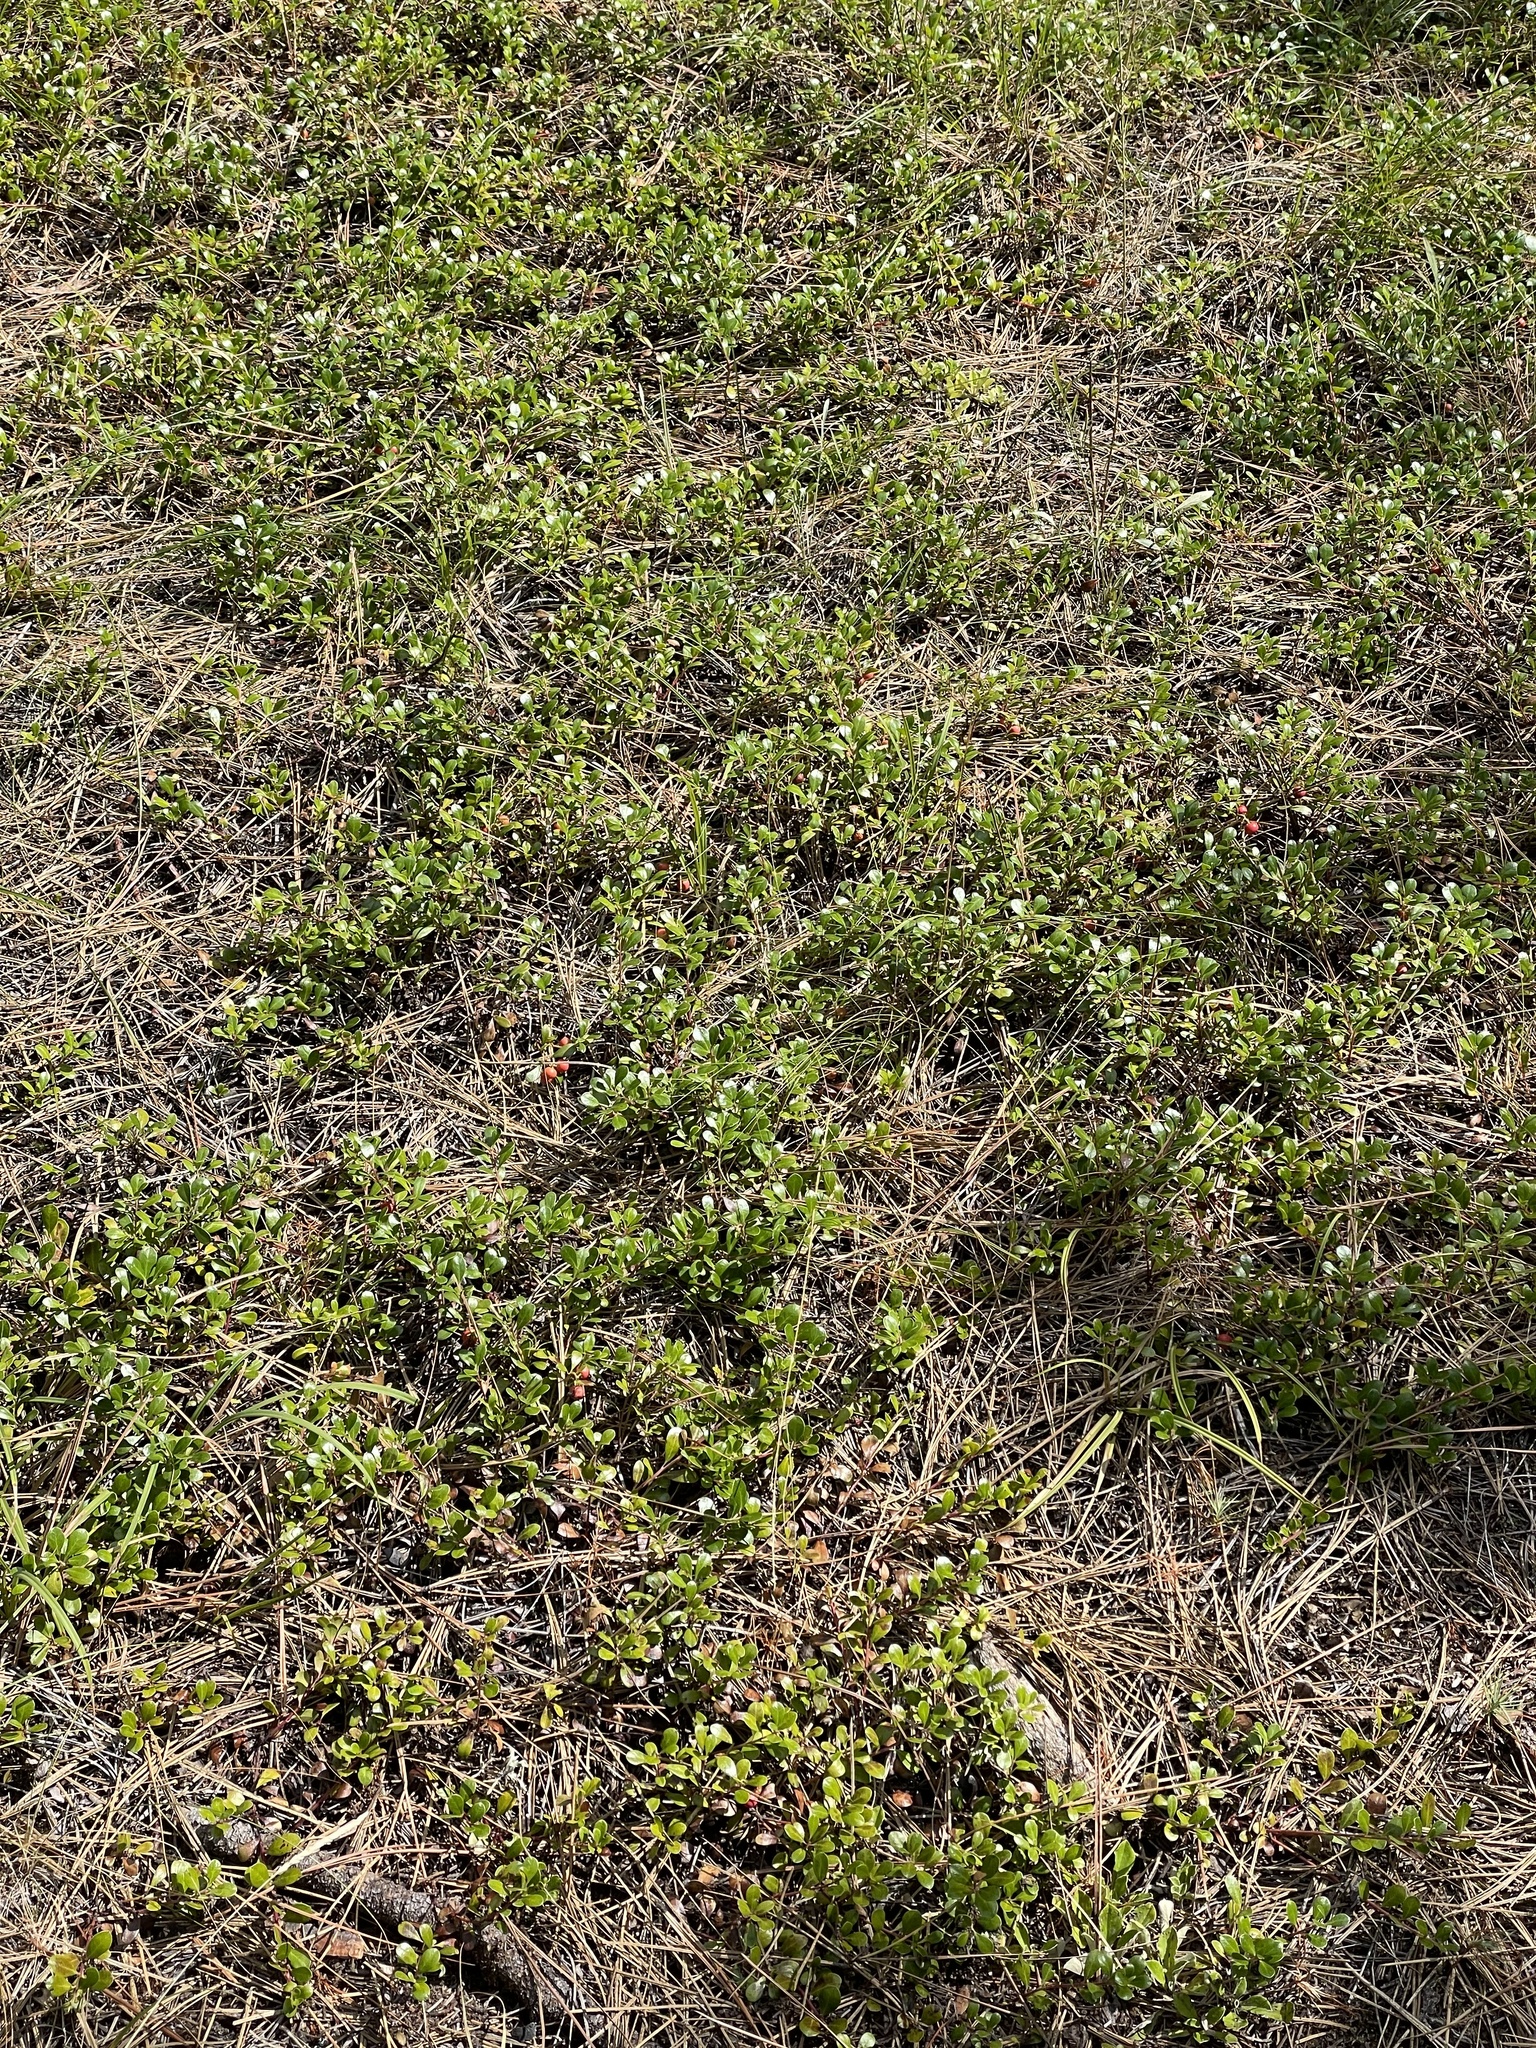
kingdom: Plantae
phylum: Tracheophyta
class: Magnoliopsida
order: Ericales
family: Ericaceae
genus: Arctostaphylos
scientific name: Arctostaphylos uva-ursi
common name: Bearberry
